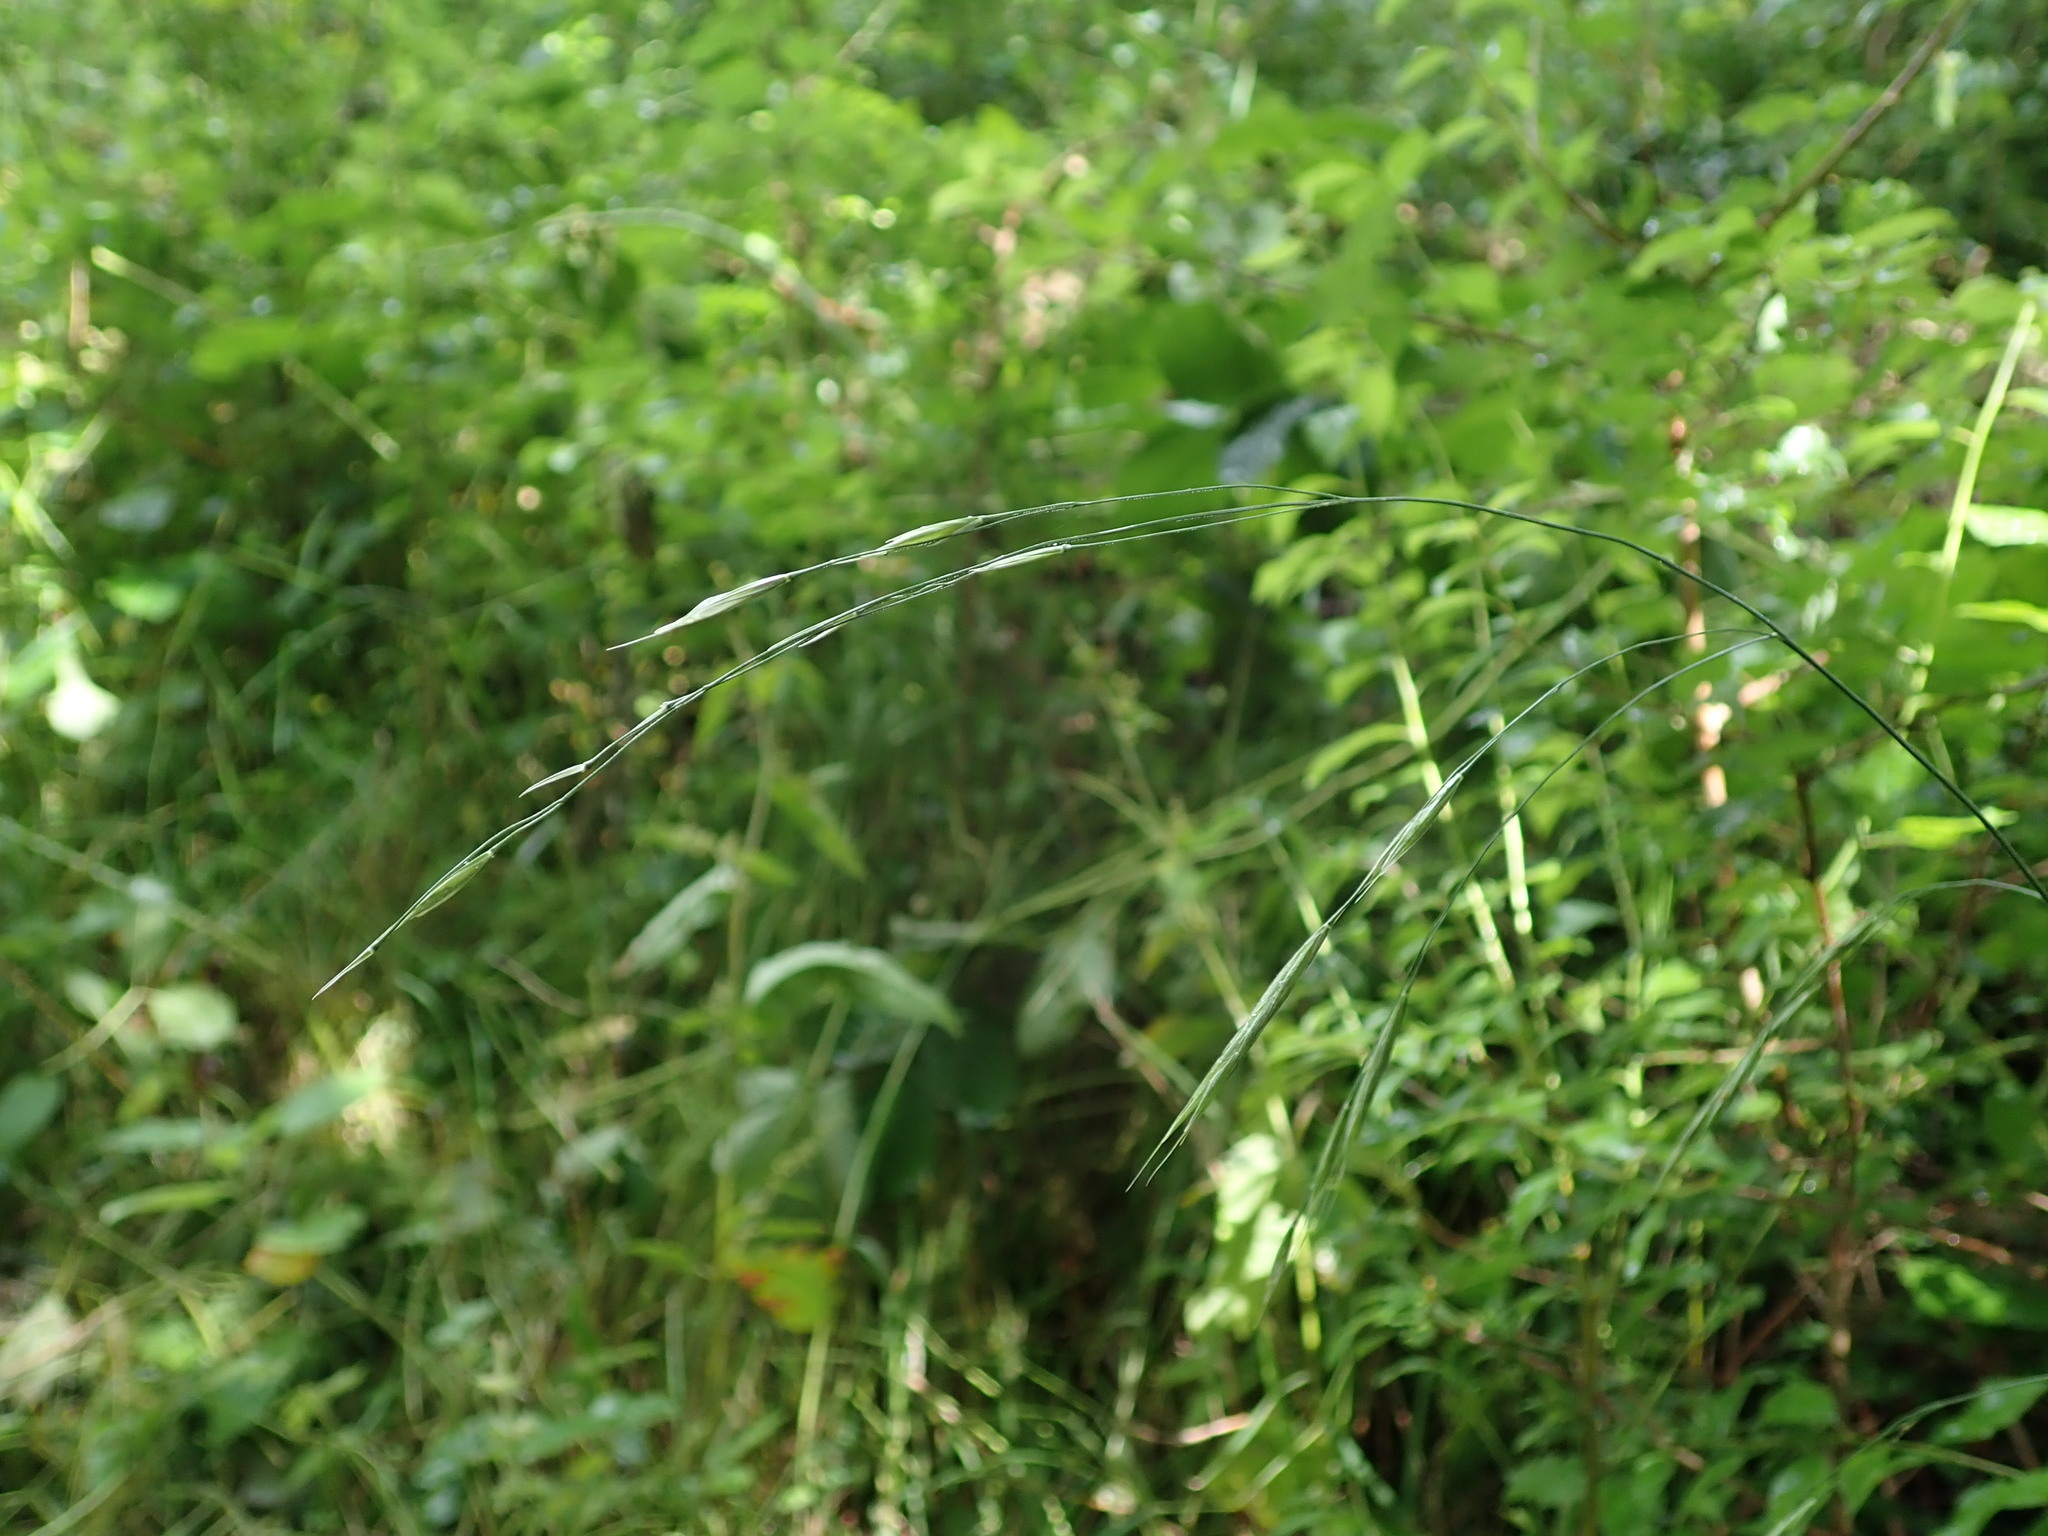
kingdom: Plantae
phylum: Tracheophyta
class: Liliopsida
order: Poales
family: Poaceae
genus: Bromus
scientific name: Bromus ramosus
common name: Hairy brome
